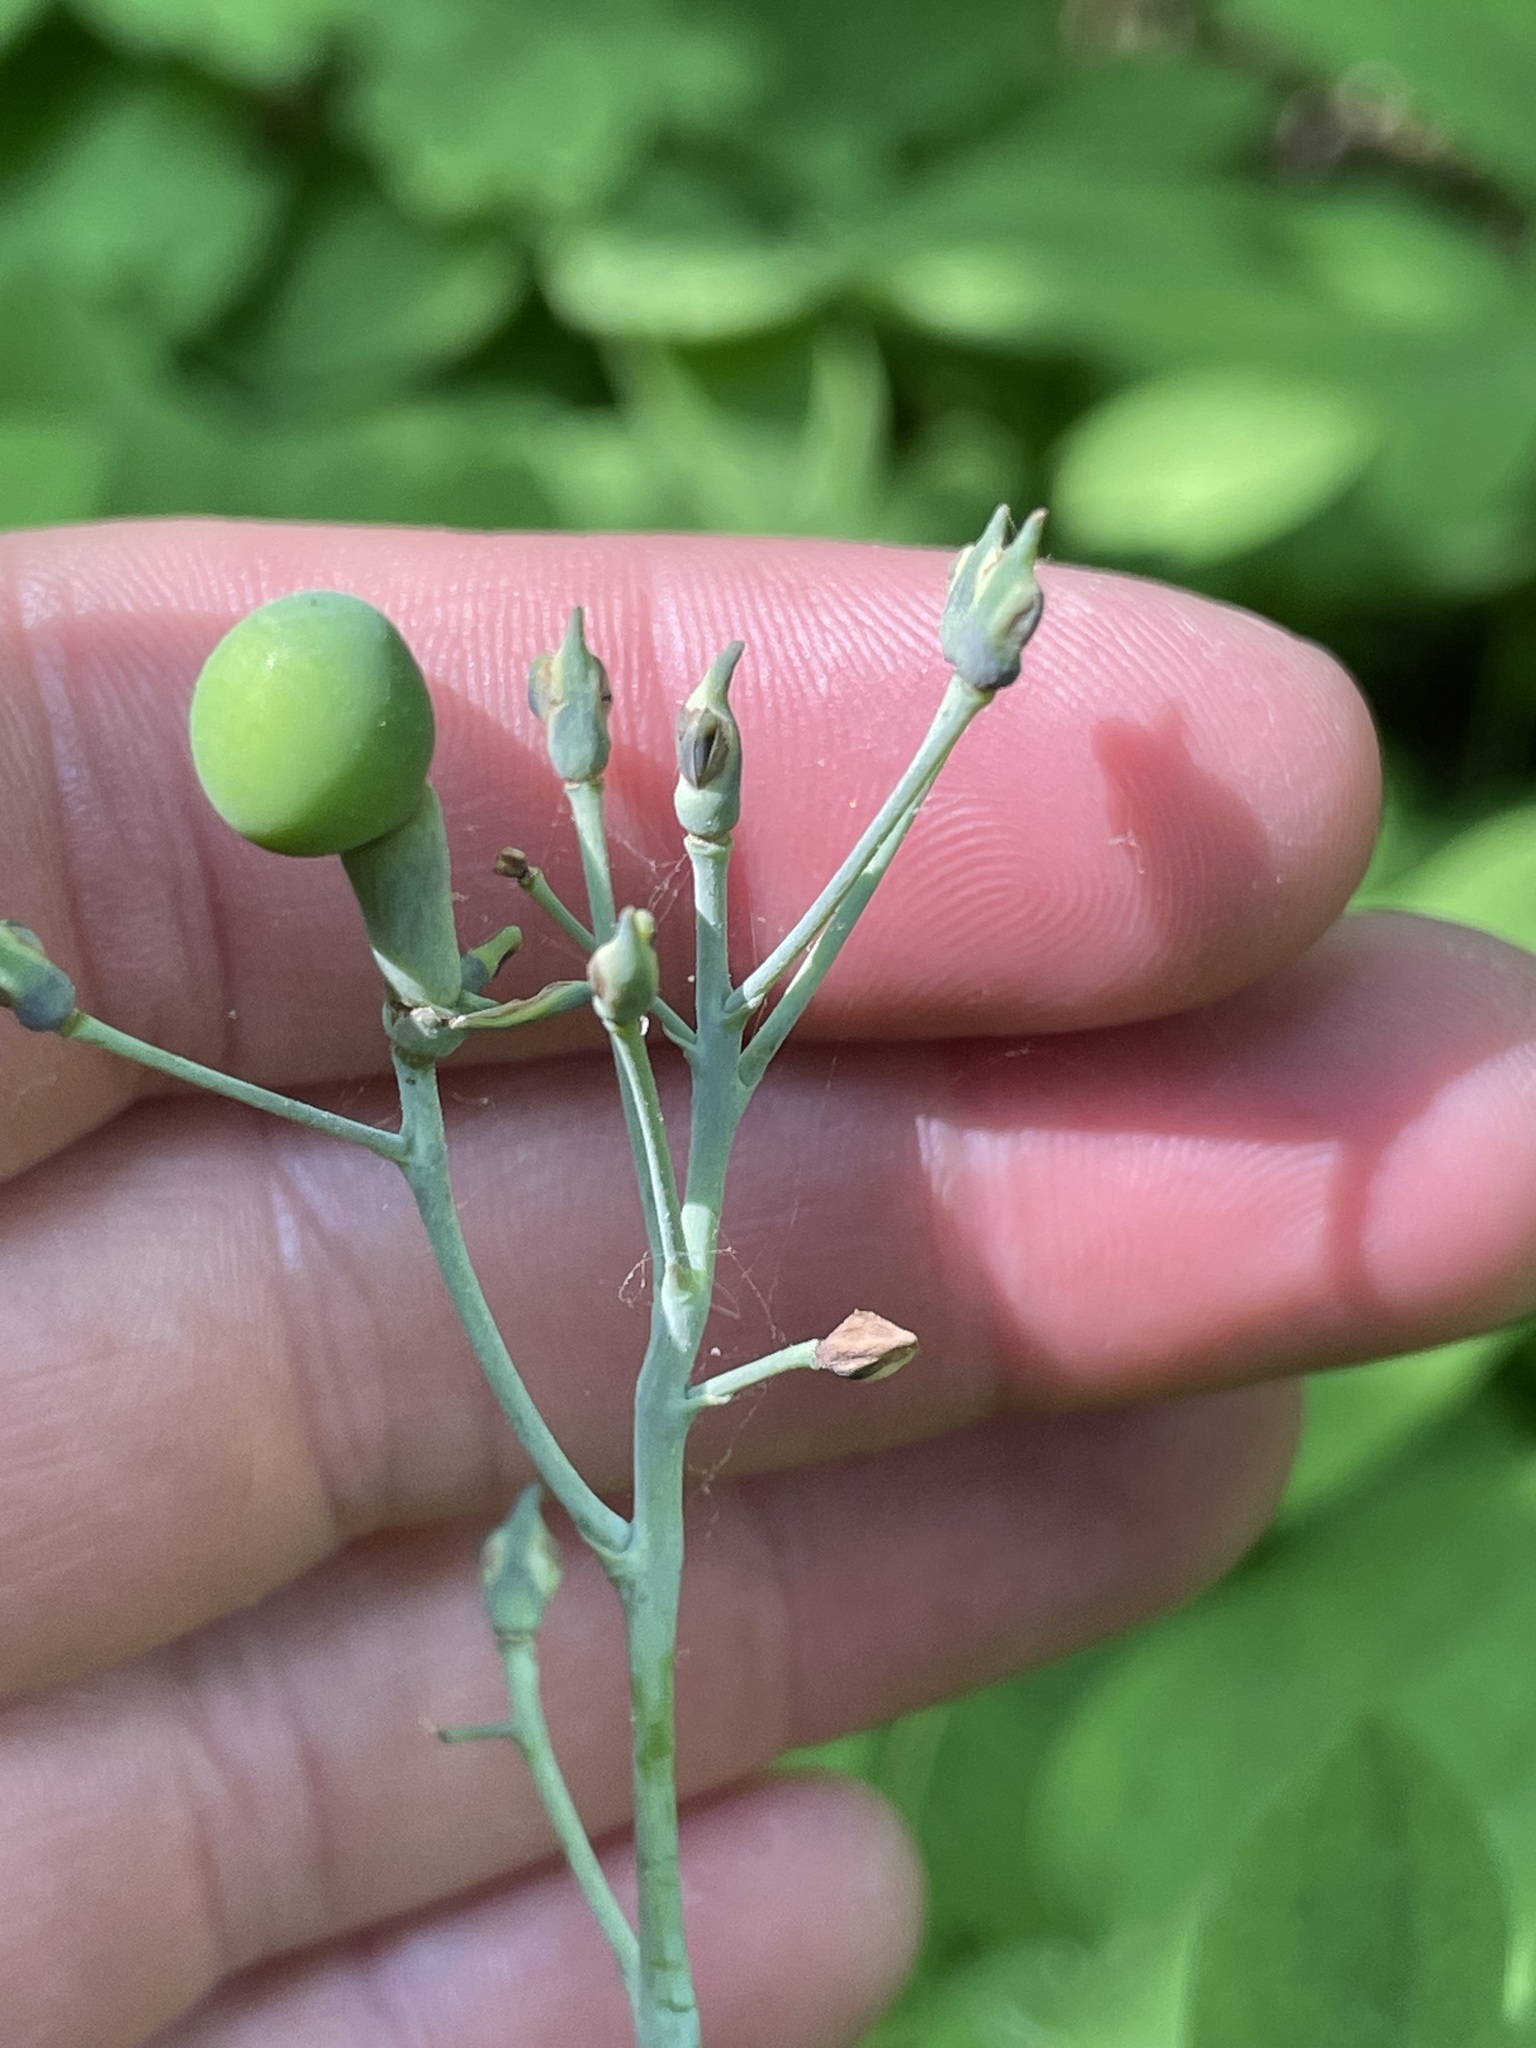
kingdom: Plantae
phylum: Tracheophyta
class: Magnoliopsida
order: Ranunculales
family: Berberidaceae
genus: Caulophyllum
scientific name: Caulophyllum giganteum
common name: Blue cohosh
